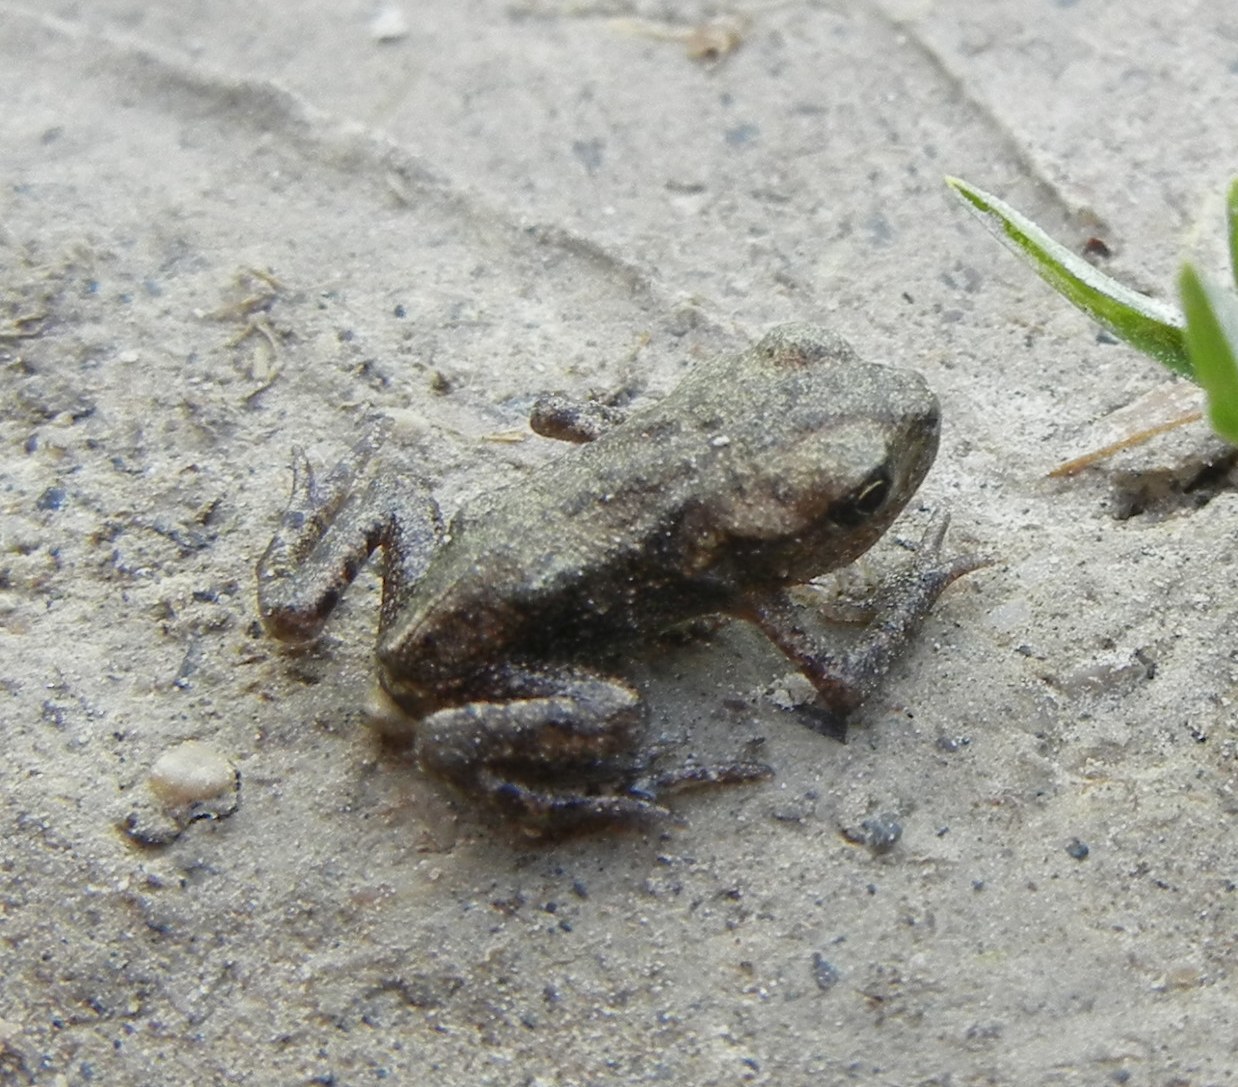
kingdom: Animalia
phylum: Chordata
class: Amphibia
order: Anura
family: Bufonidae
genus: Bufo
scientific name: Bufo bufo
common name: Common toad
